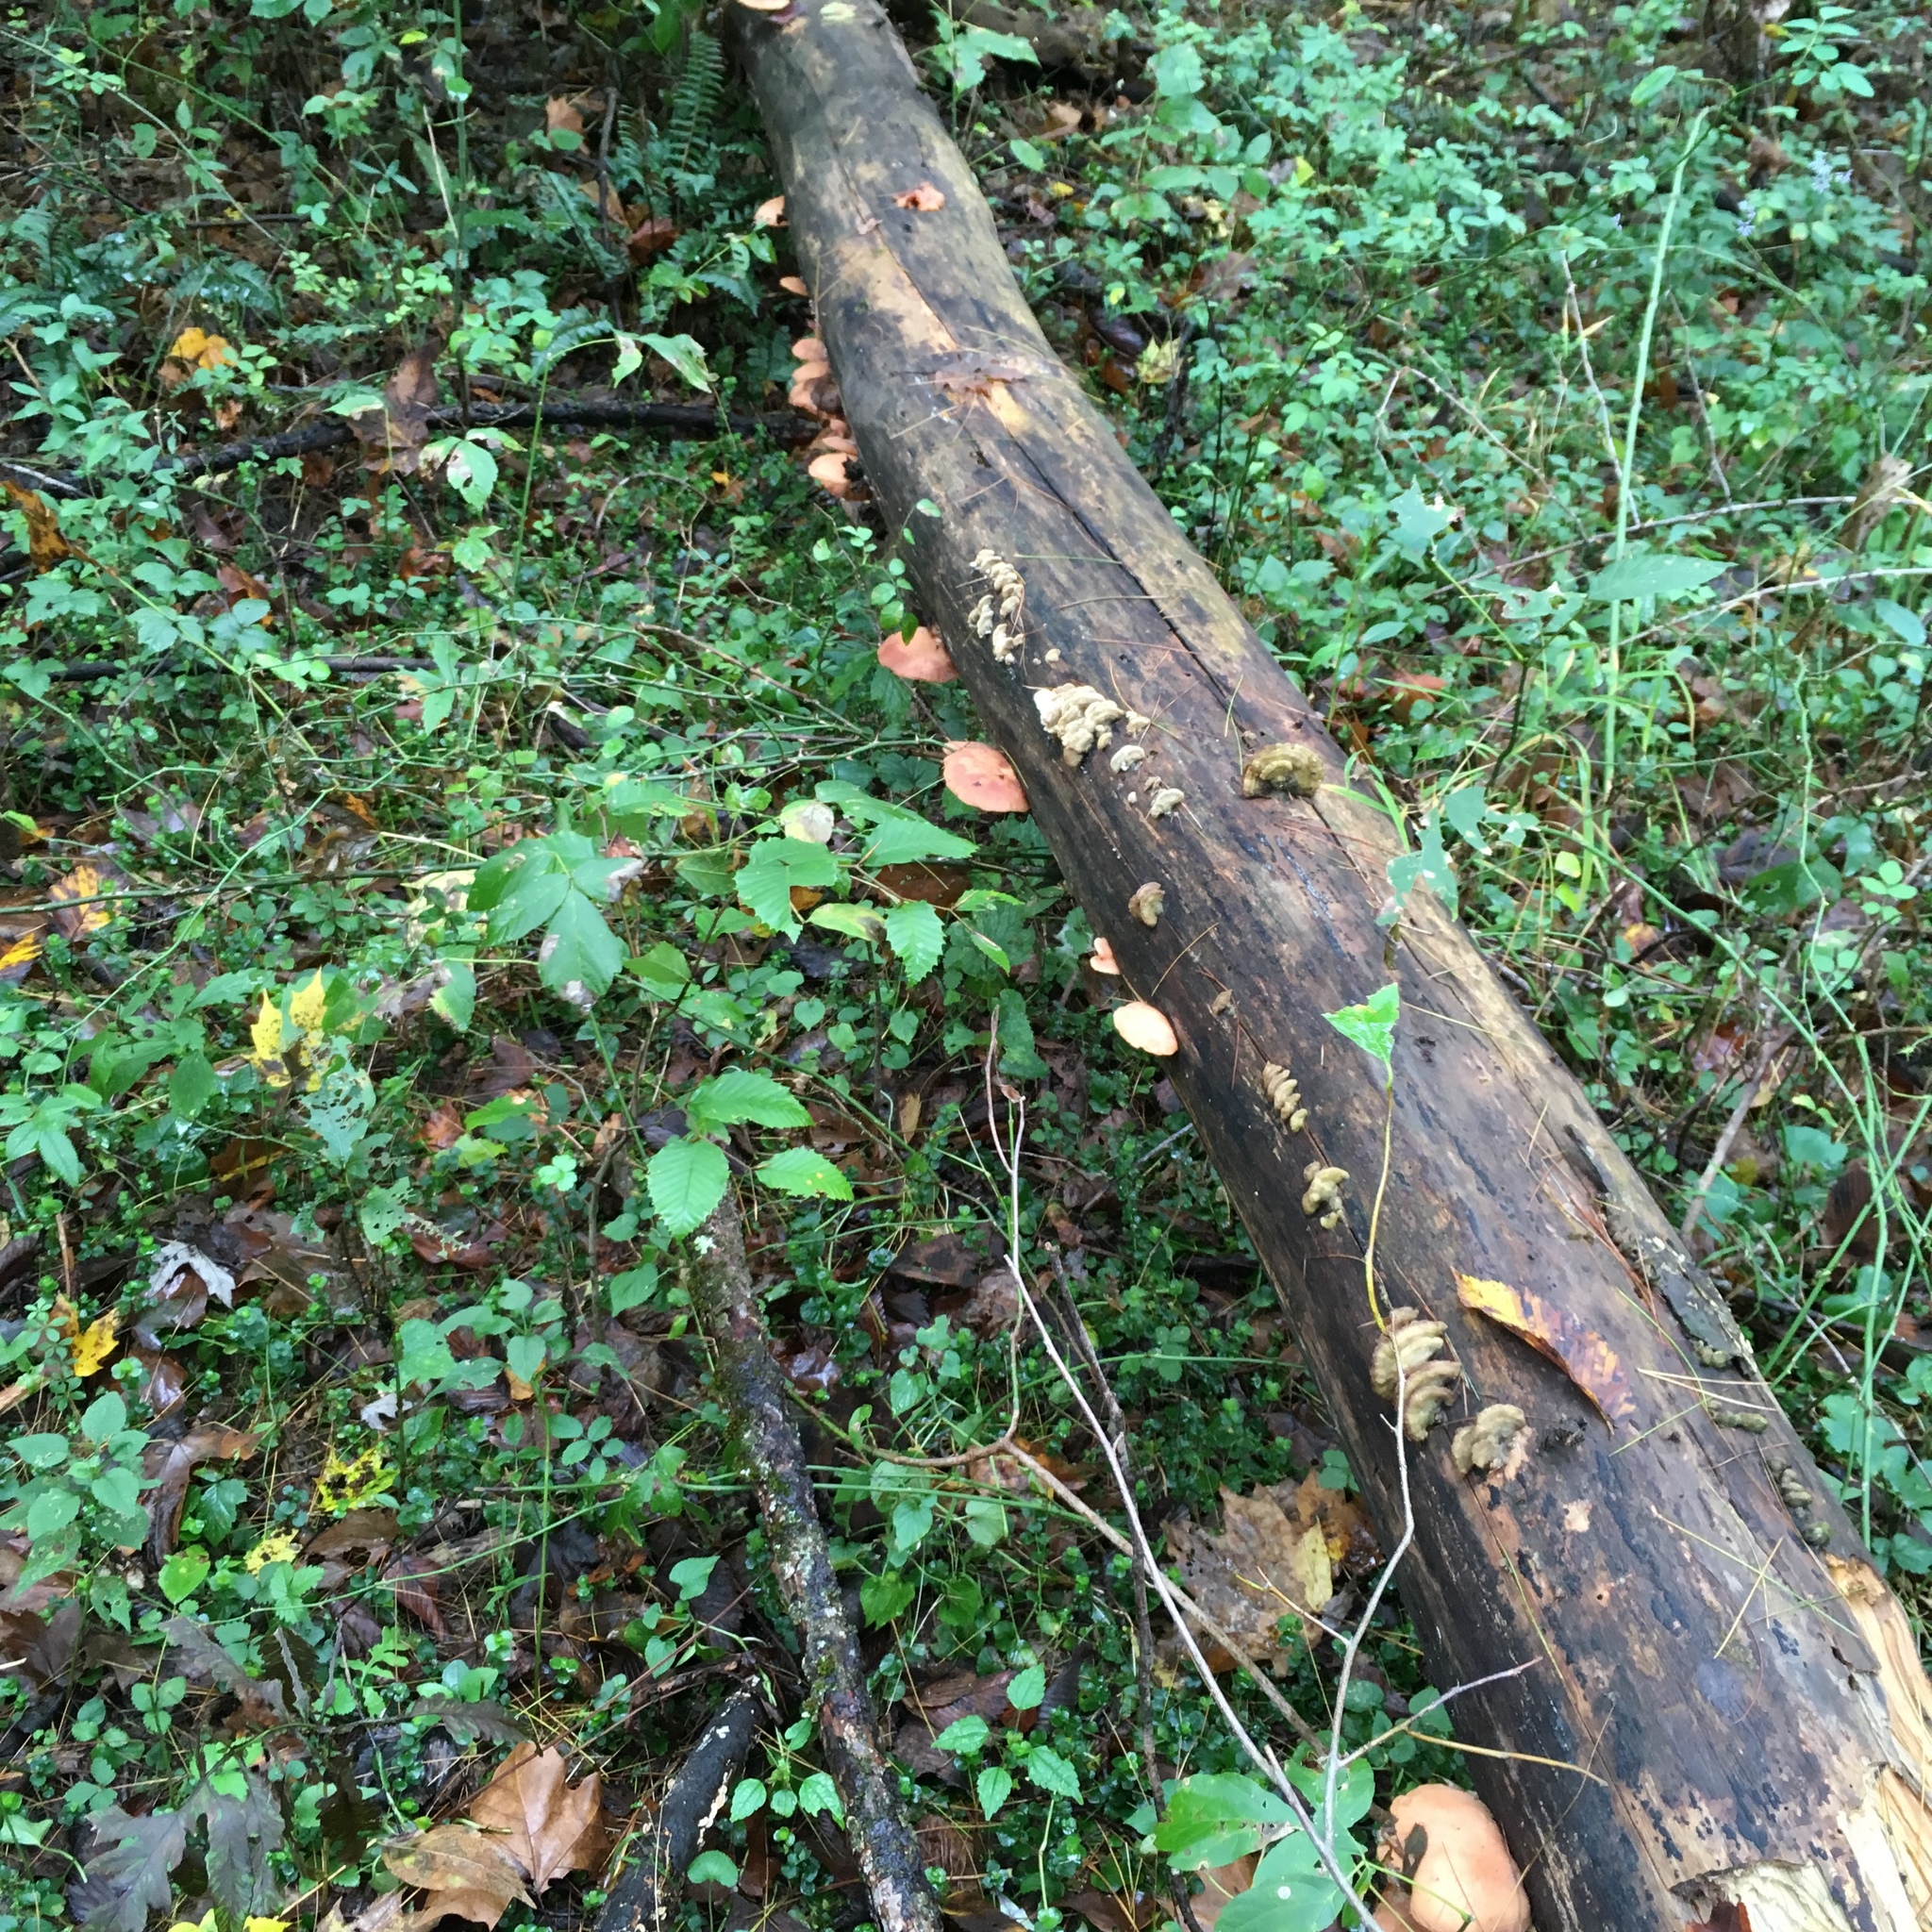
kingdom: Fungi
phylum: Basidiomycota
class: Agaricomycetes
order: Agaricales
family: Physalacriaceae
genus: Rhodotus
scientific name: Rhodotus palmatus
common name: Wrinkled peach
